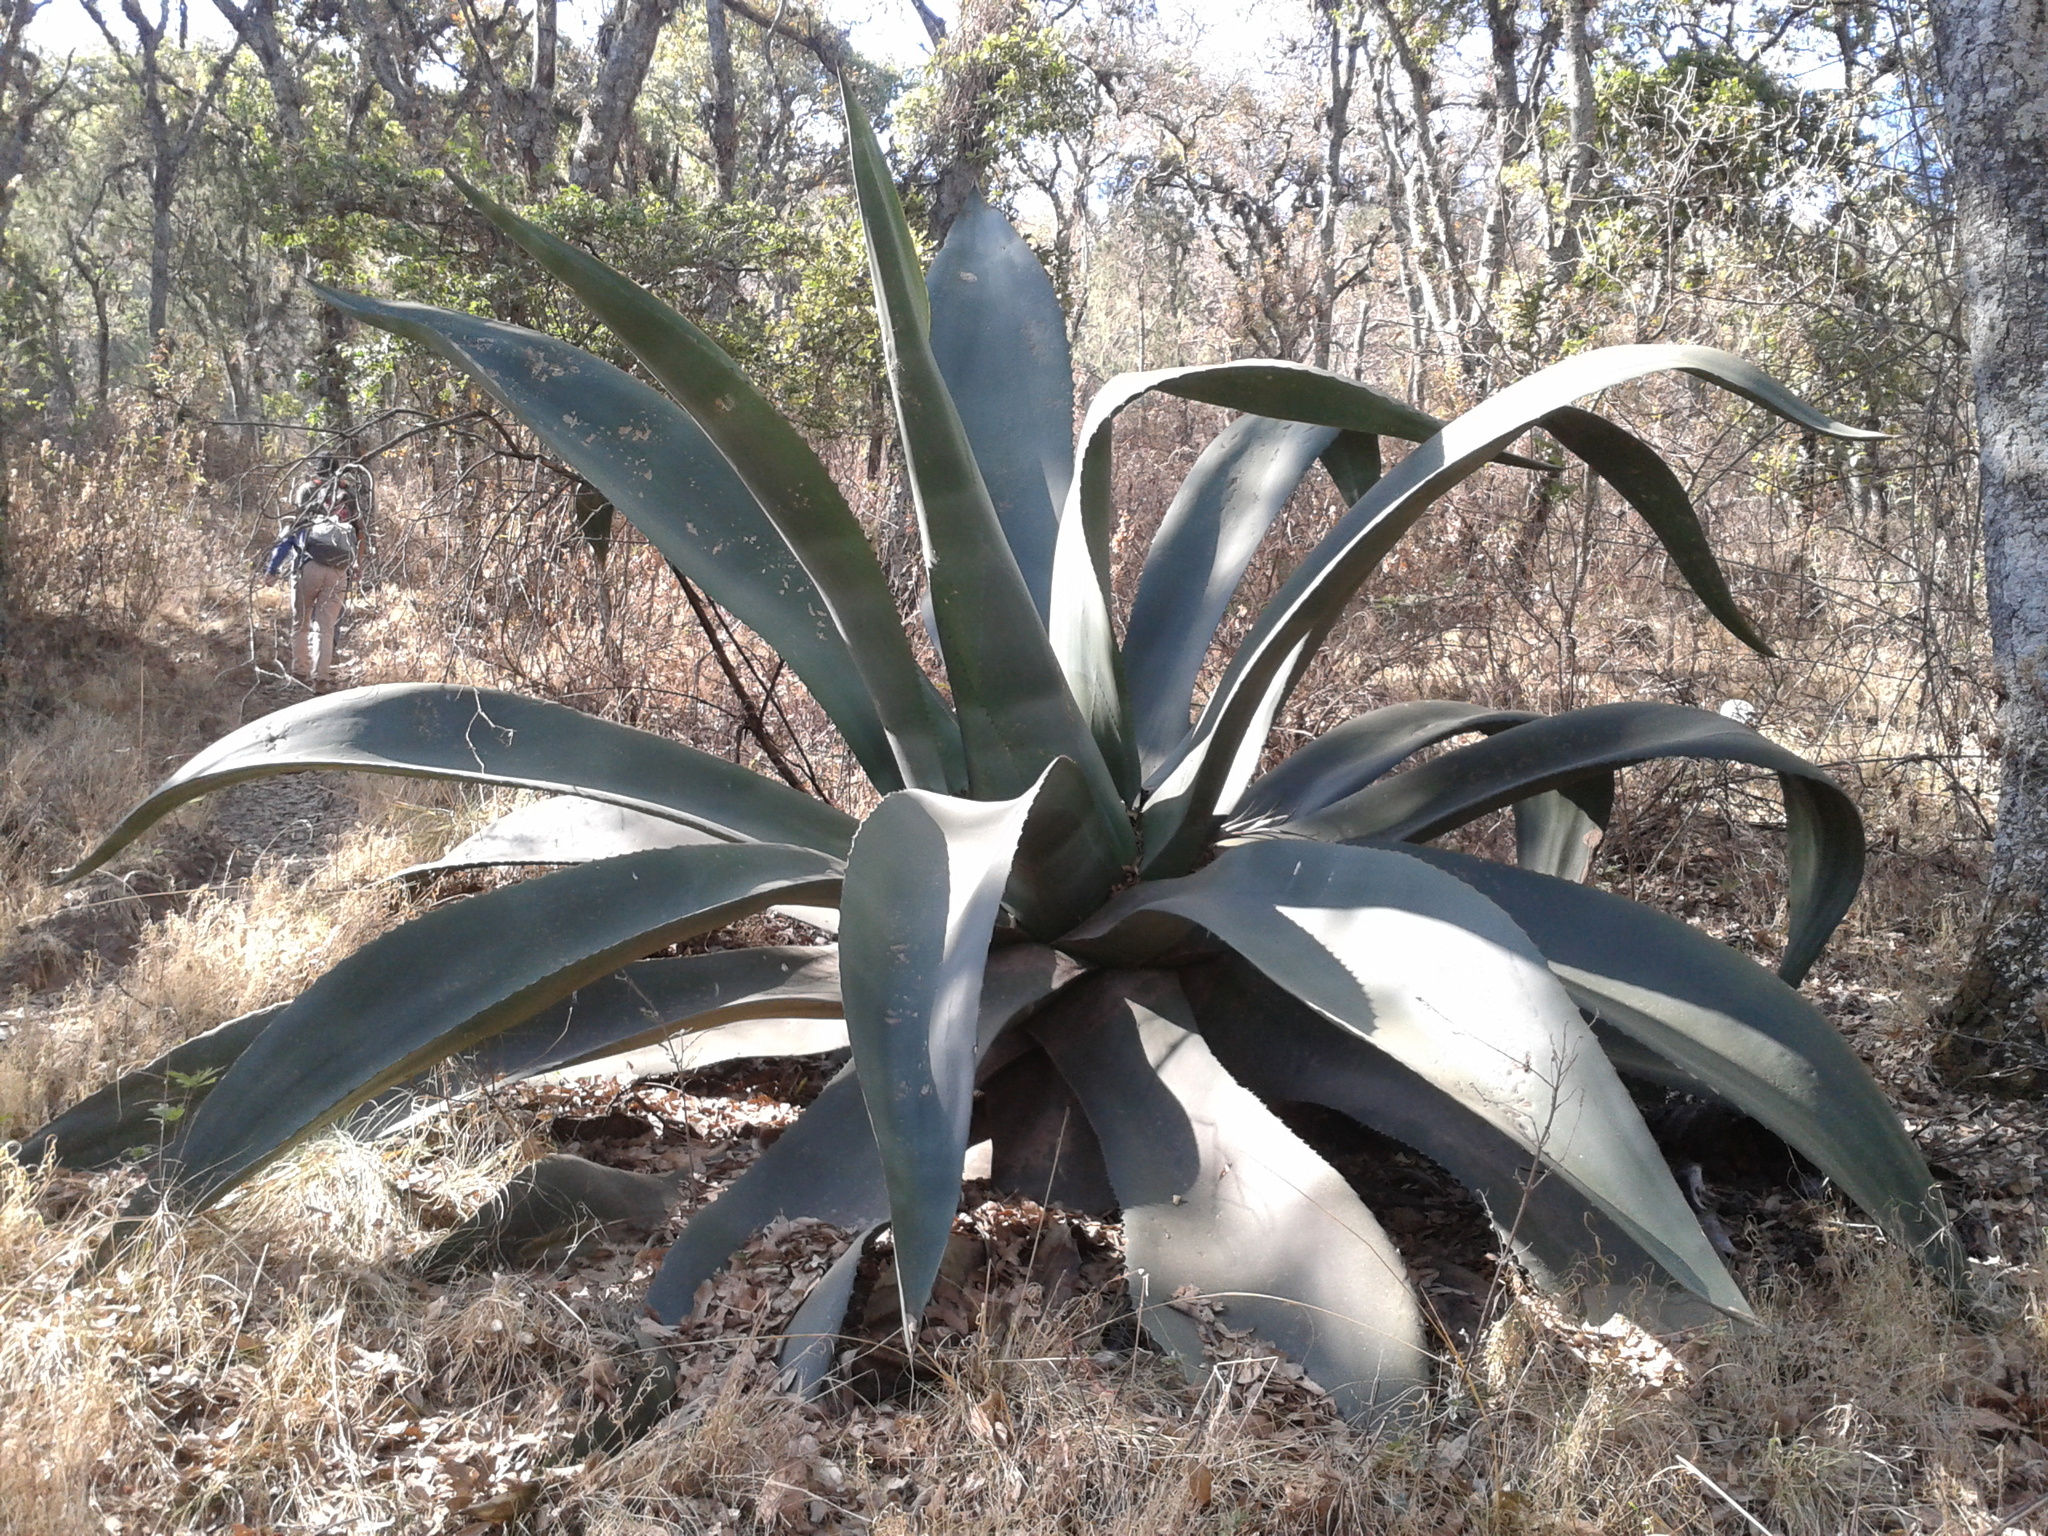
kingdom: Plantae
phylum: Tracheophyta
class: Liliopsida
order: Asparagales
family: Asparagaceae
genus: Agave
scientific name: Agave salmiana
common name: Pulque agave
